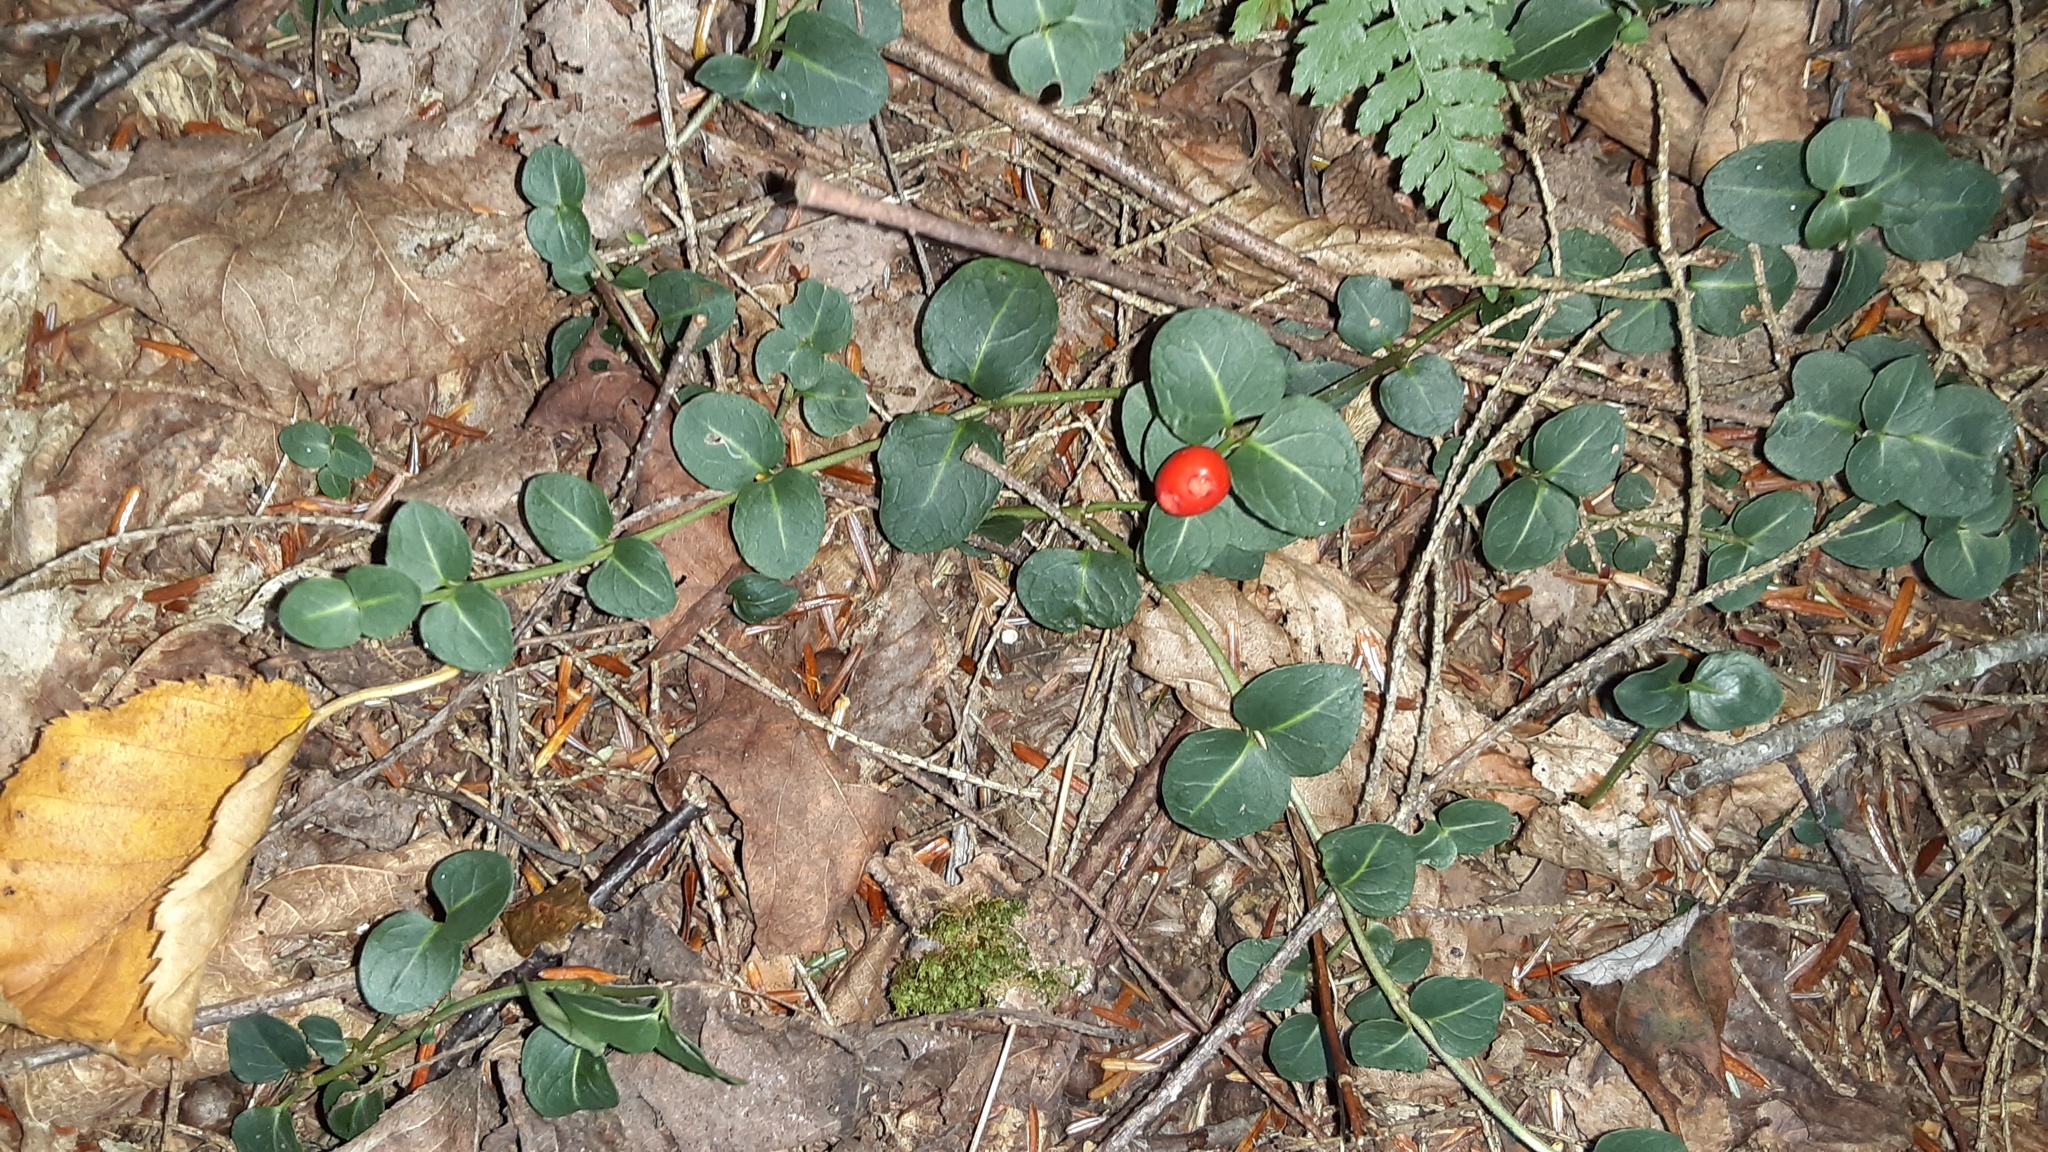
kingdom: Plantae
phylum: Tracheophyta
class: Magnoliopsida
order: Gentianales
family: Rubiaceae
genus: Mitchella
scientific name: Mitchella repens
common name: Partridge-berry
